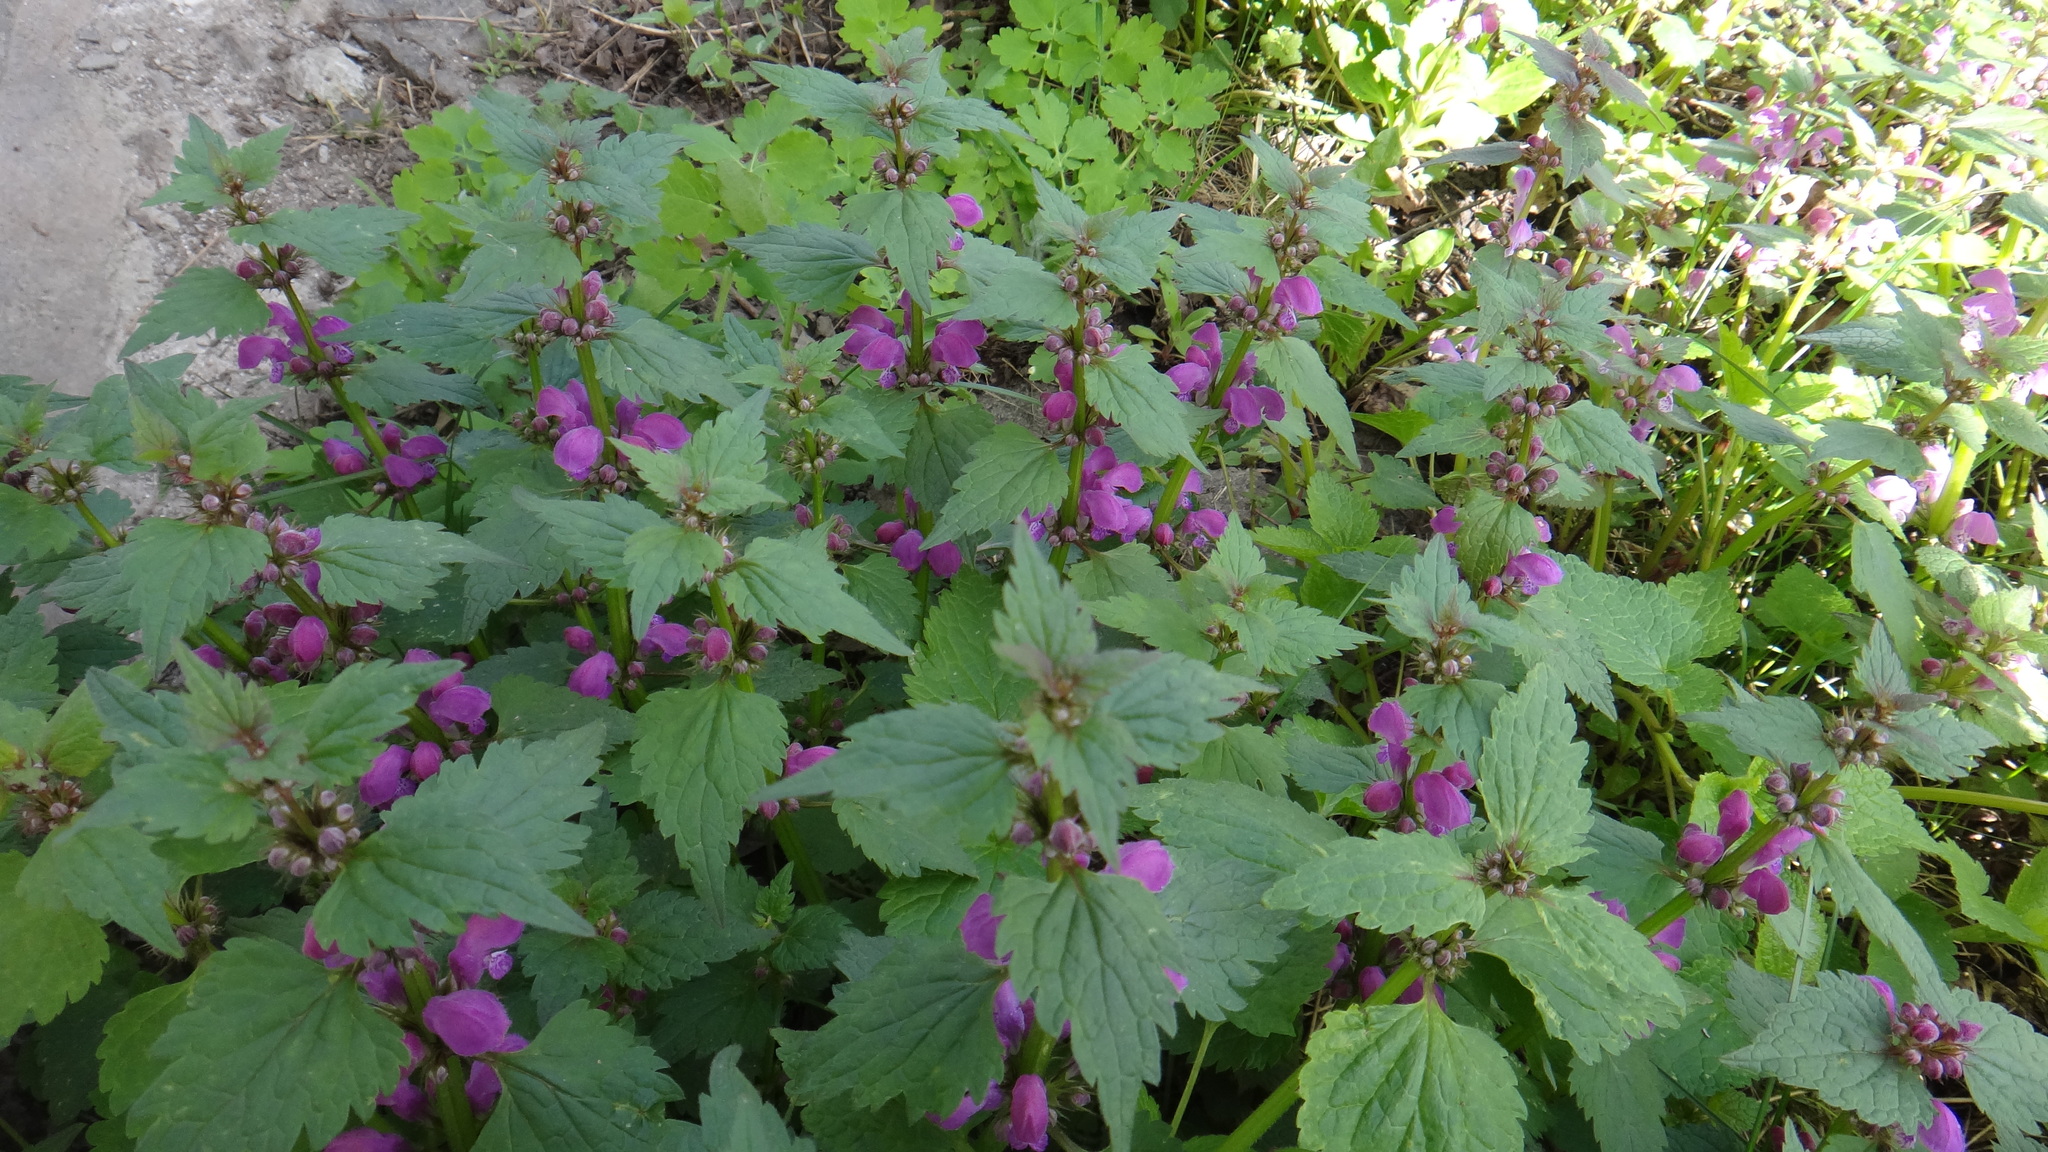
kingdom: Plantae
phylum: Tracheophyta
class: Magnoliopsida
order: Lamiales
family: Lamiaceae
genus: Lamium
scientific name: Lamium maculatum
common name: Spotted dead-nettle
